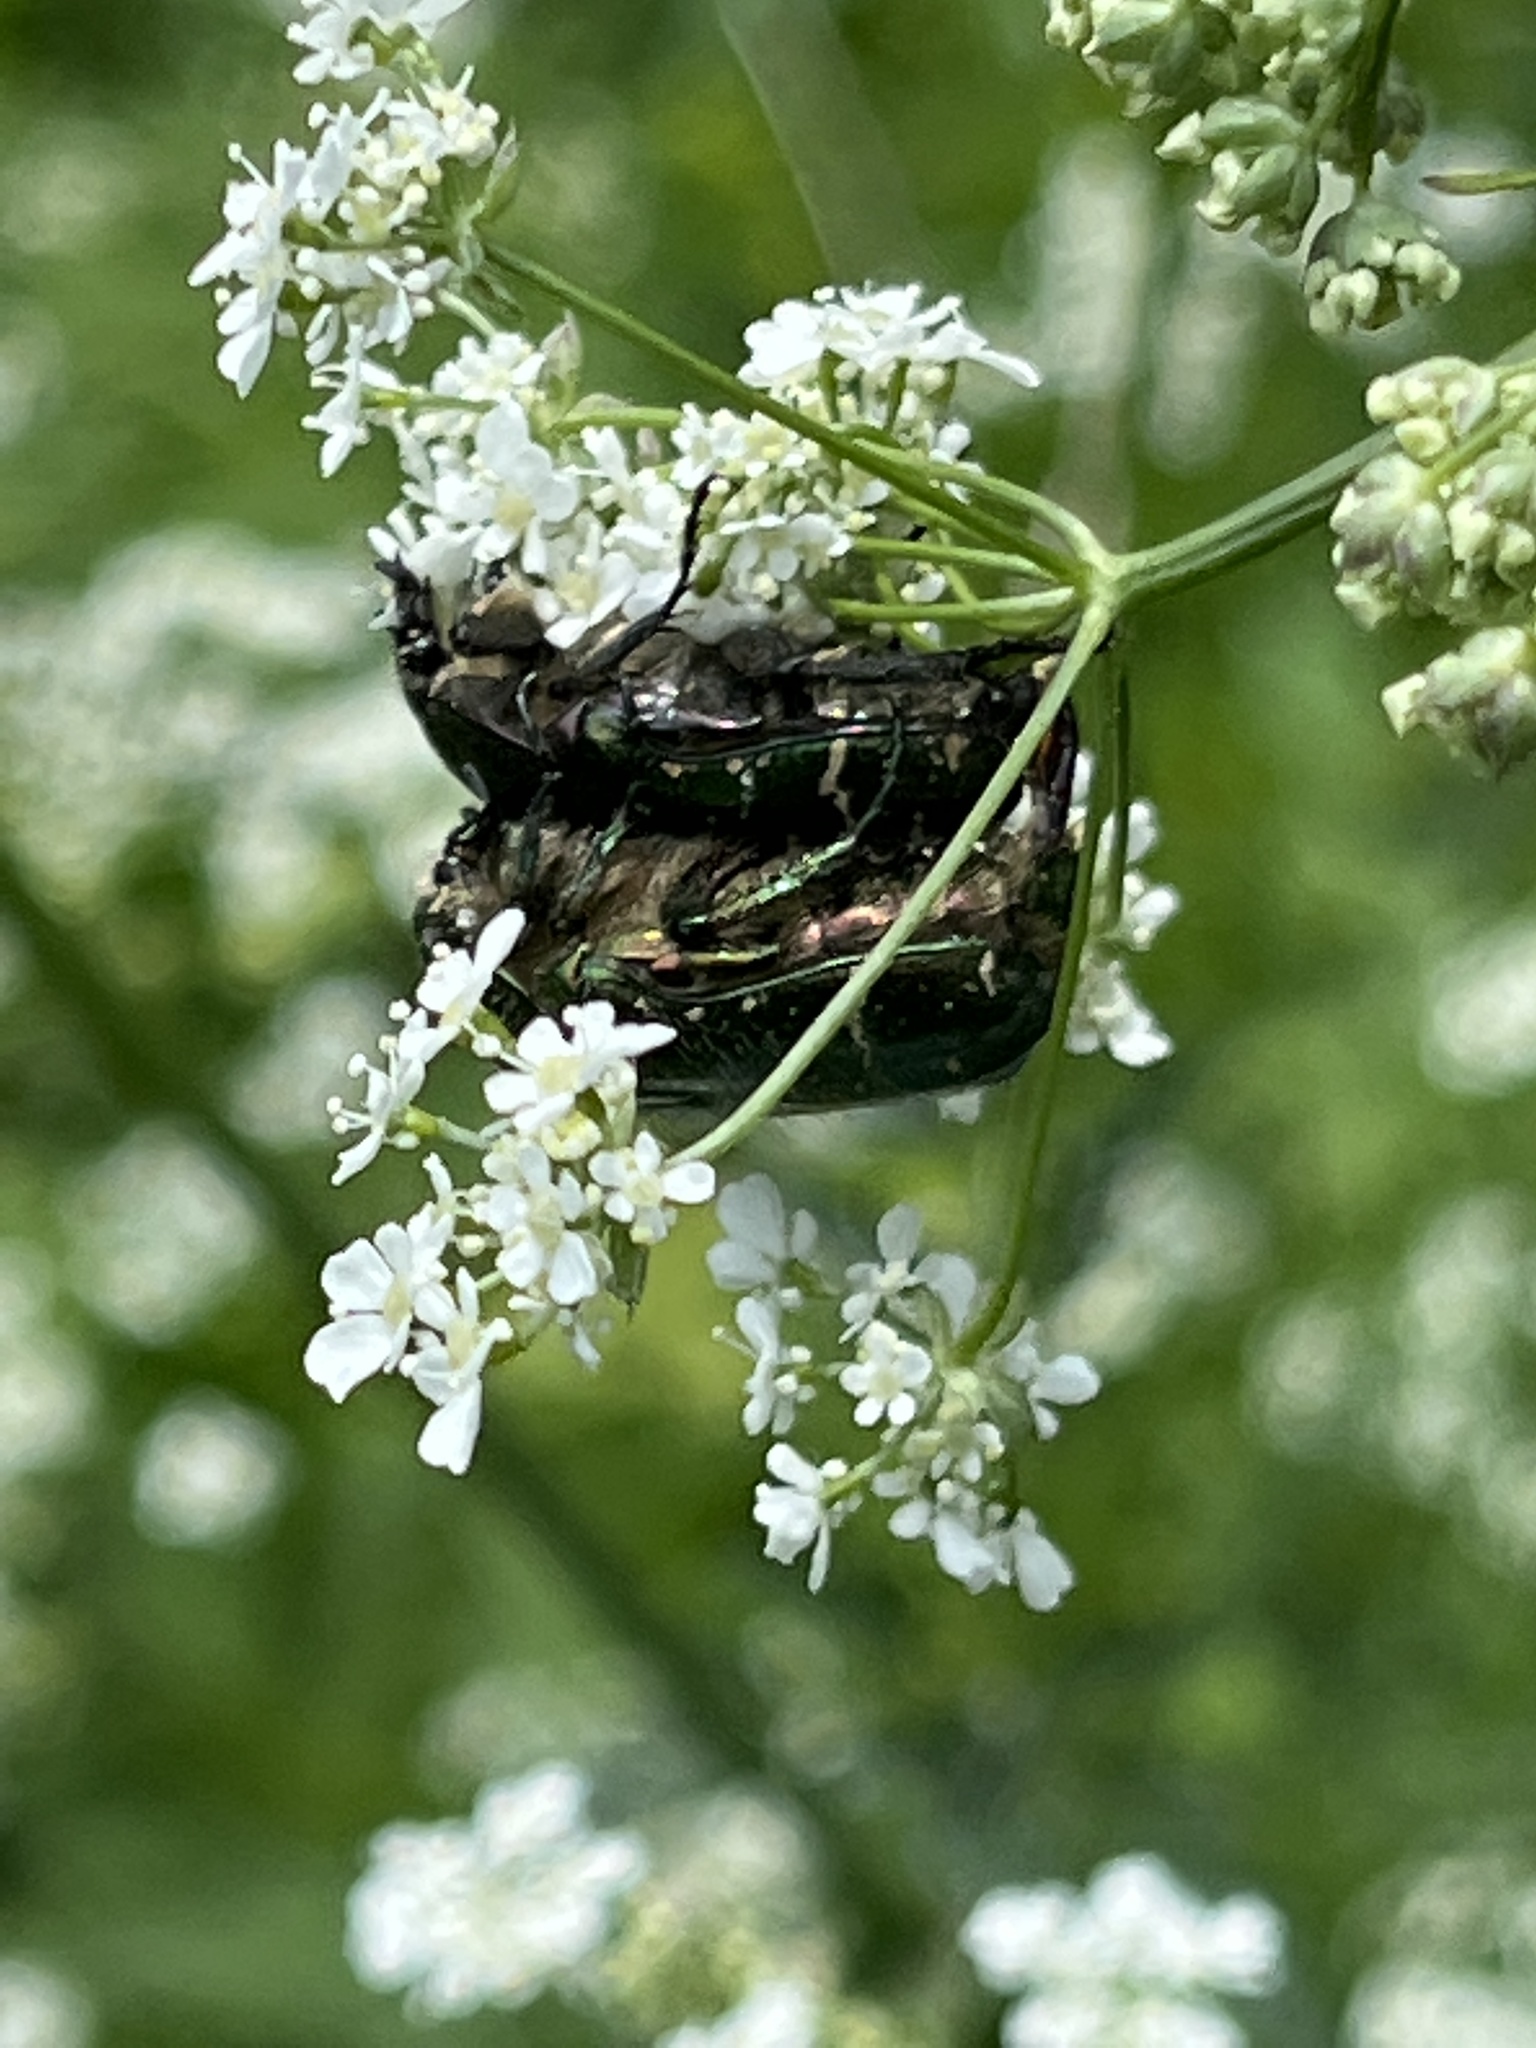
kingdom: Animalia
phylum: Arthropoda
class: Insecta
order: Coleoptera
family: Scarabaeidae
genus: Cetonia
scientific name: Cetonia aurata
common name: Rose chafer
